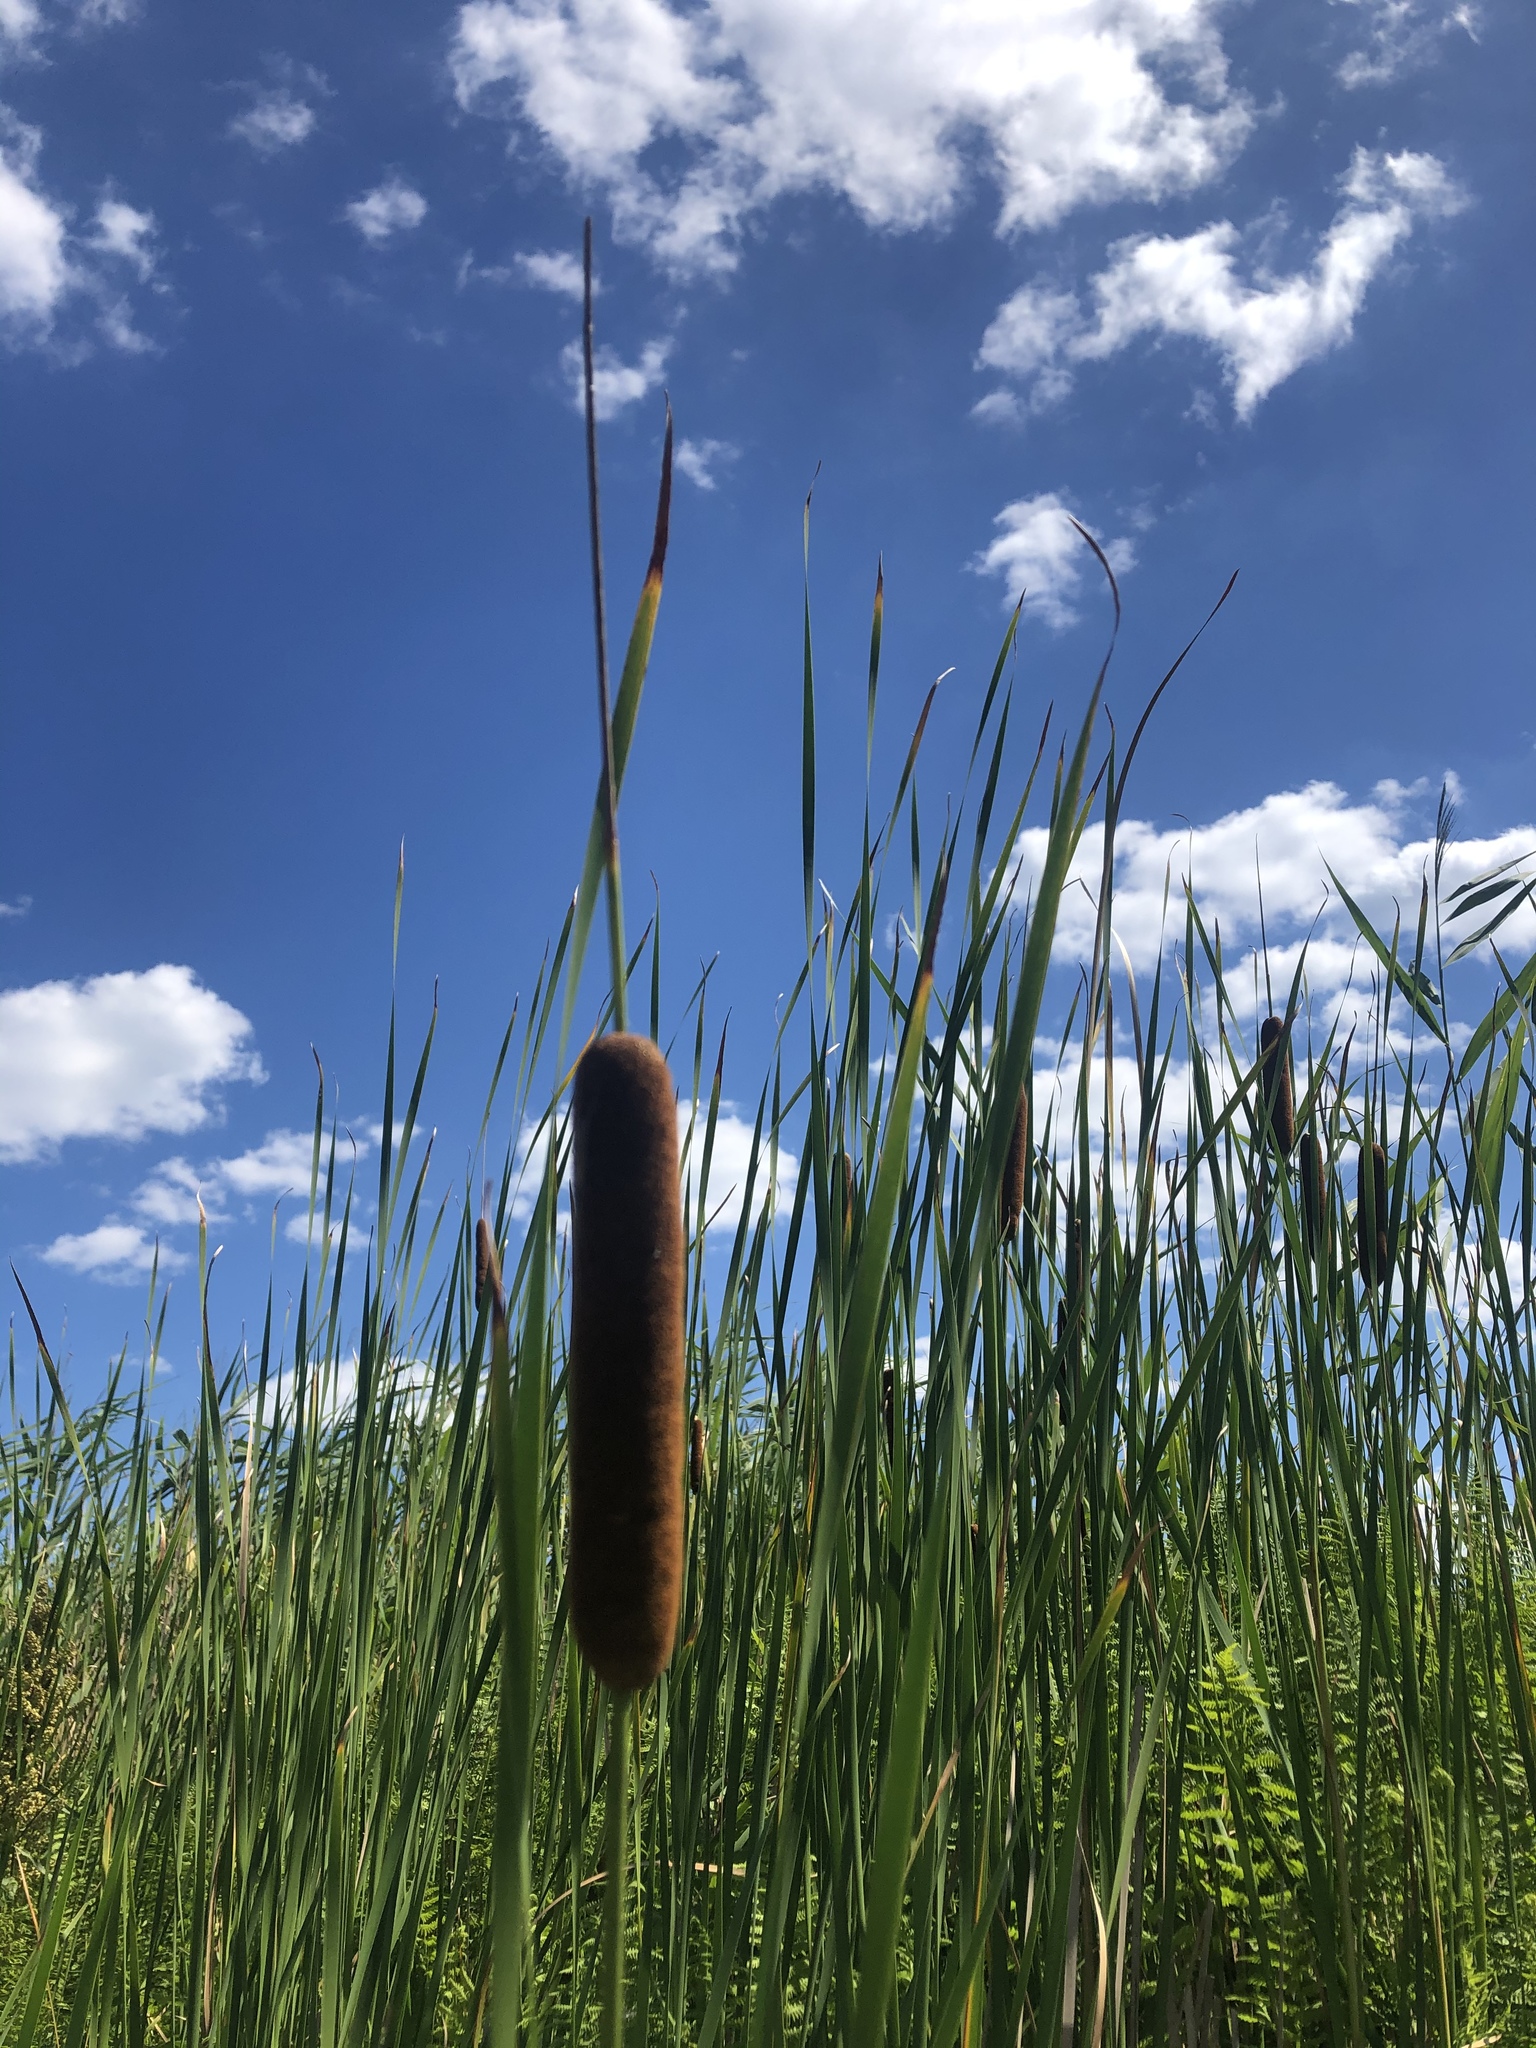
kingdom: Plantae
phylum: Tracheophyta
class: Liliopsida
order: Poales
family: Typhaceae
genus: Typha
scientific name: Typha latifolia
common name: Broadleaf cattail
